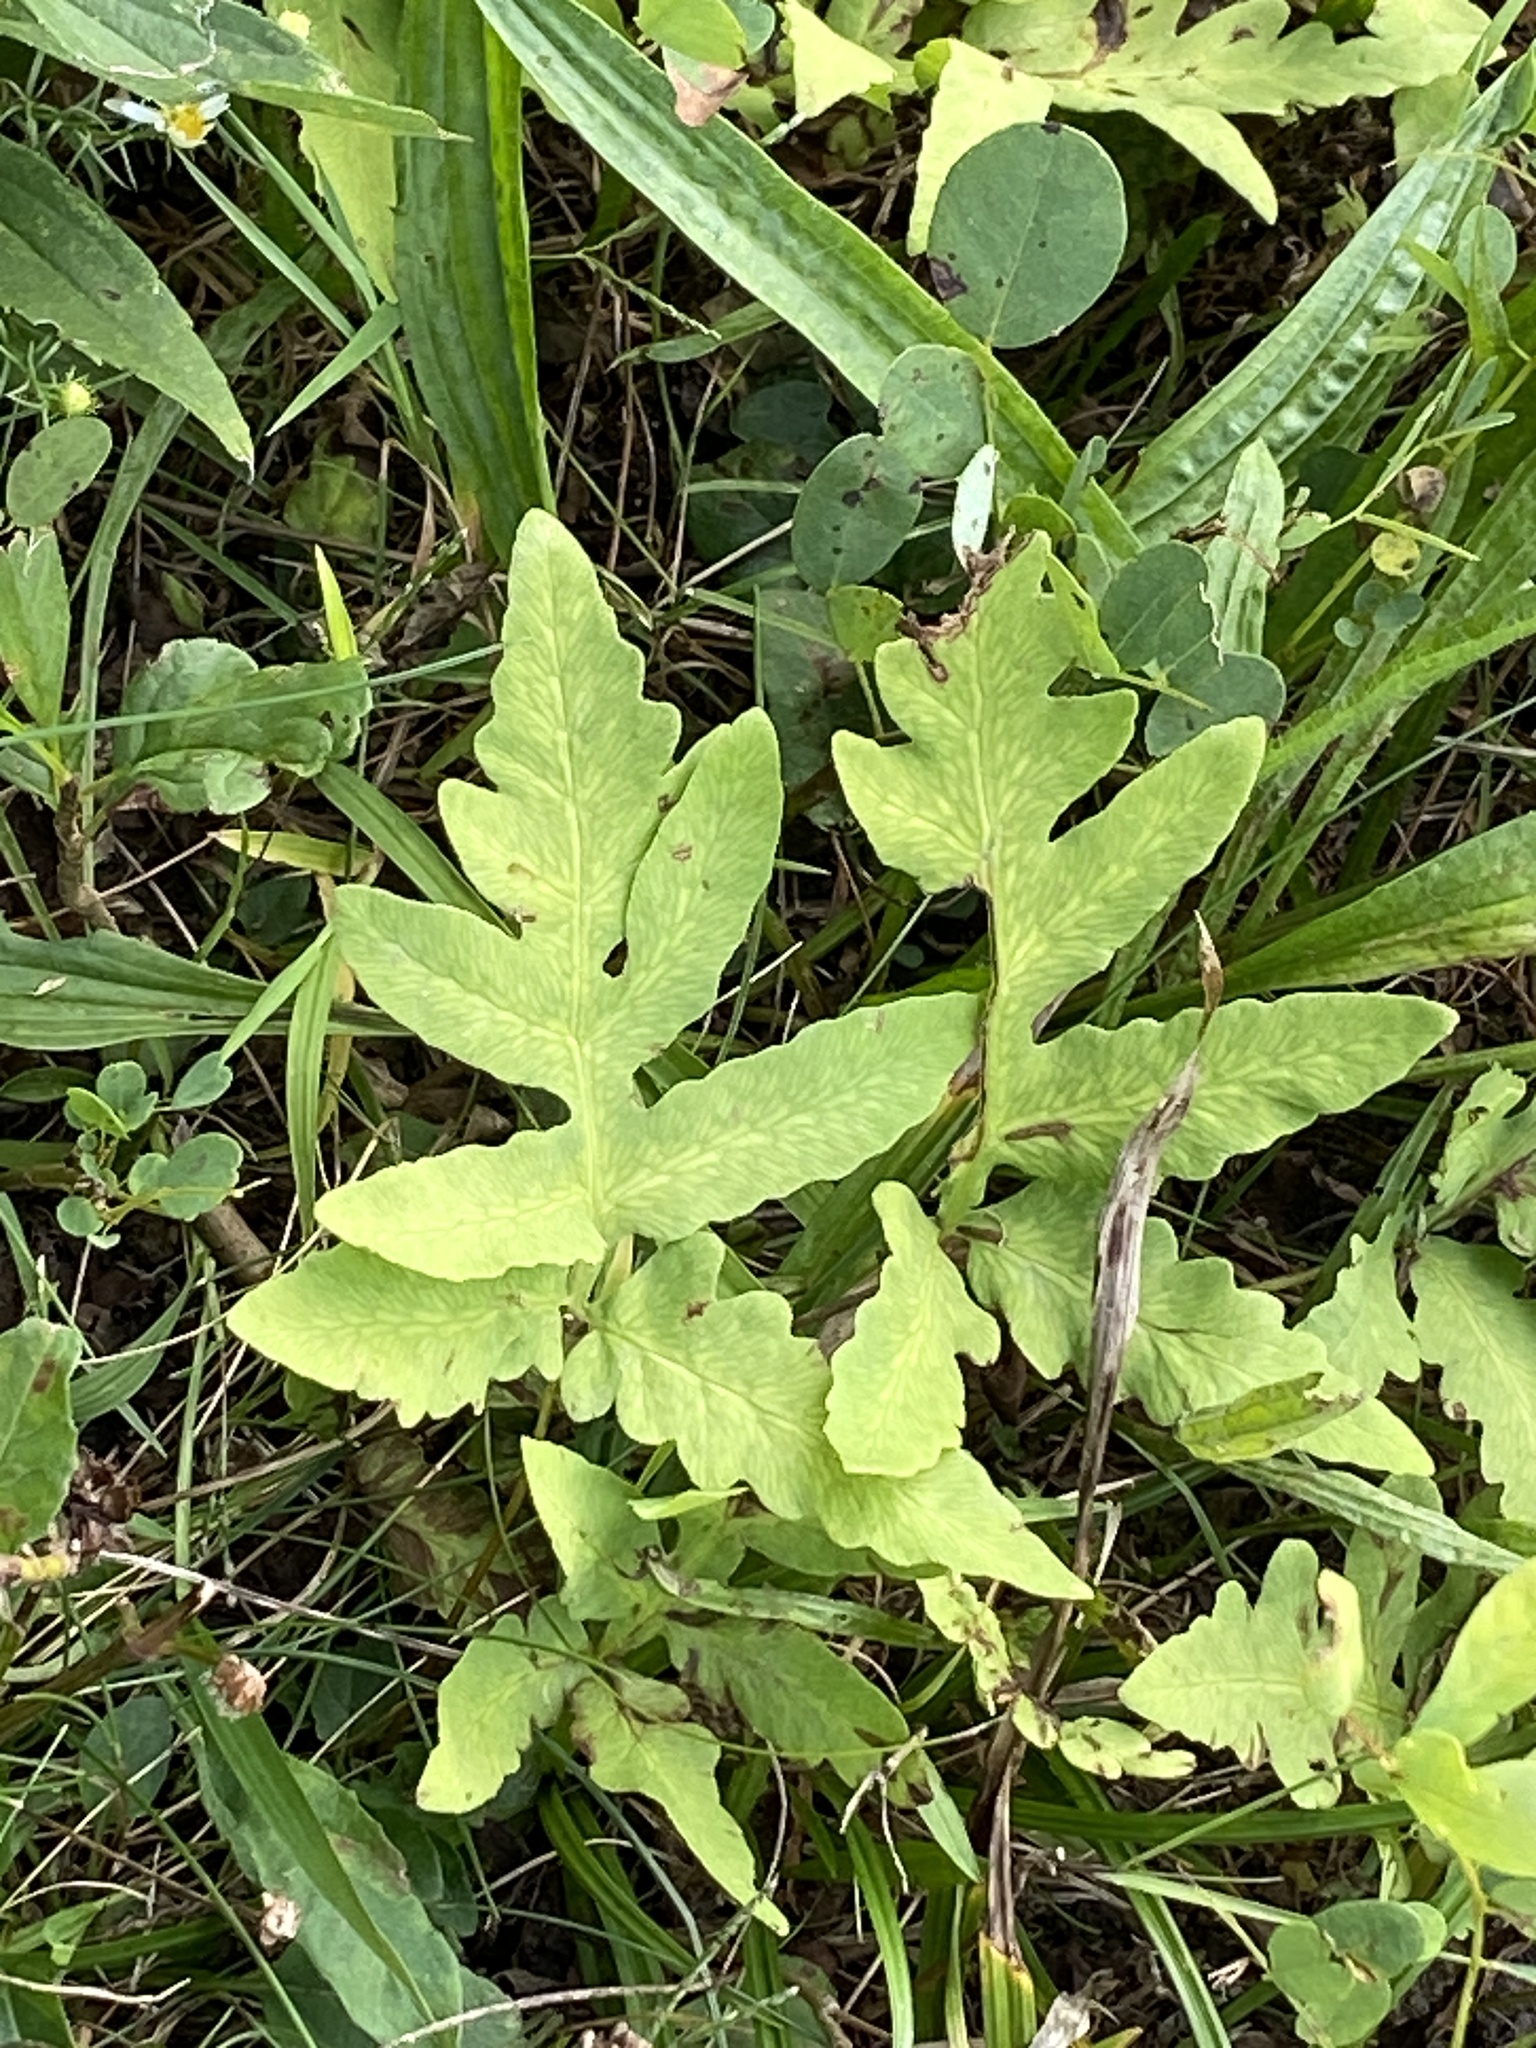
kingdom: Plantae
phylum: Tracheophyta
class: Polypodiopsida
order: Polypodiales
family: Onocleaceae
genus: Onoclea
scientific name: Onoclea sensibilis
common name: Sensitive fern
